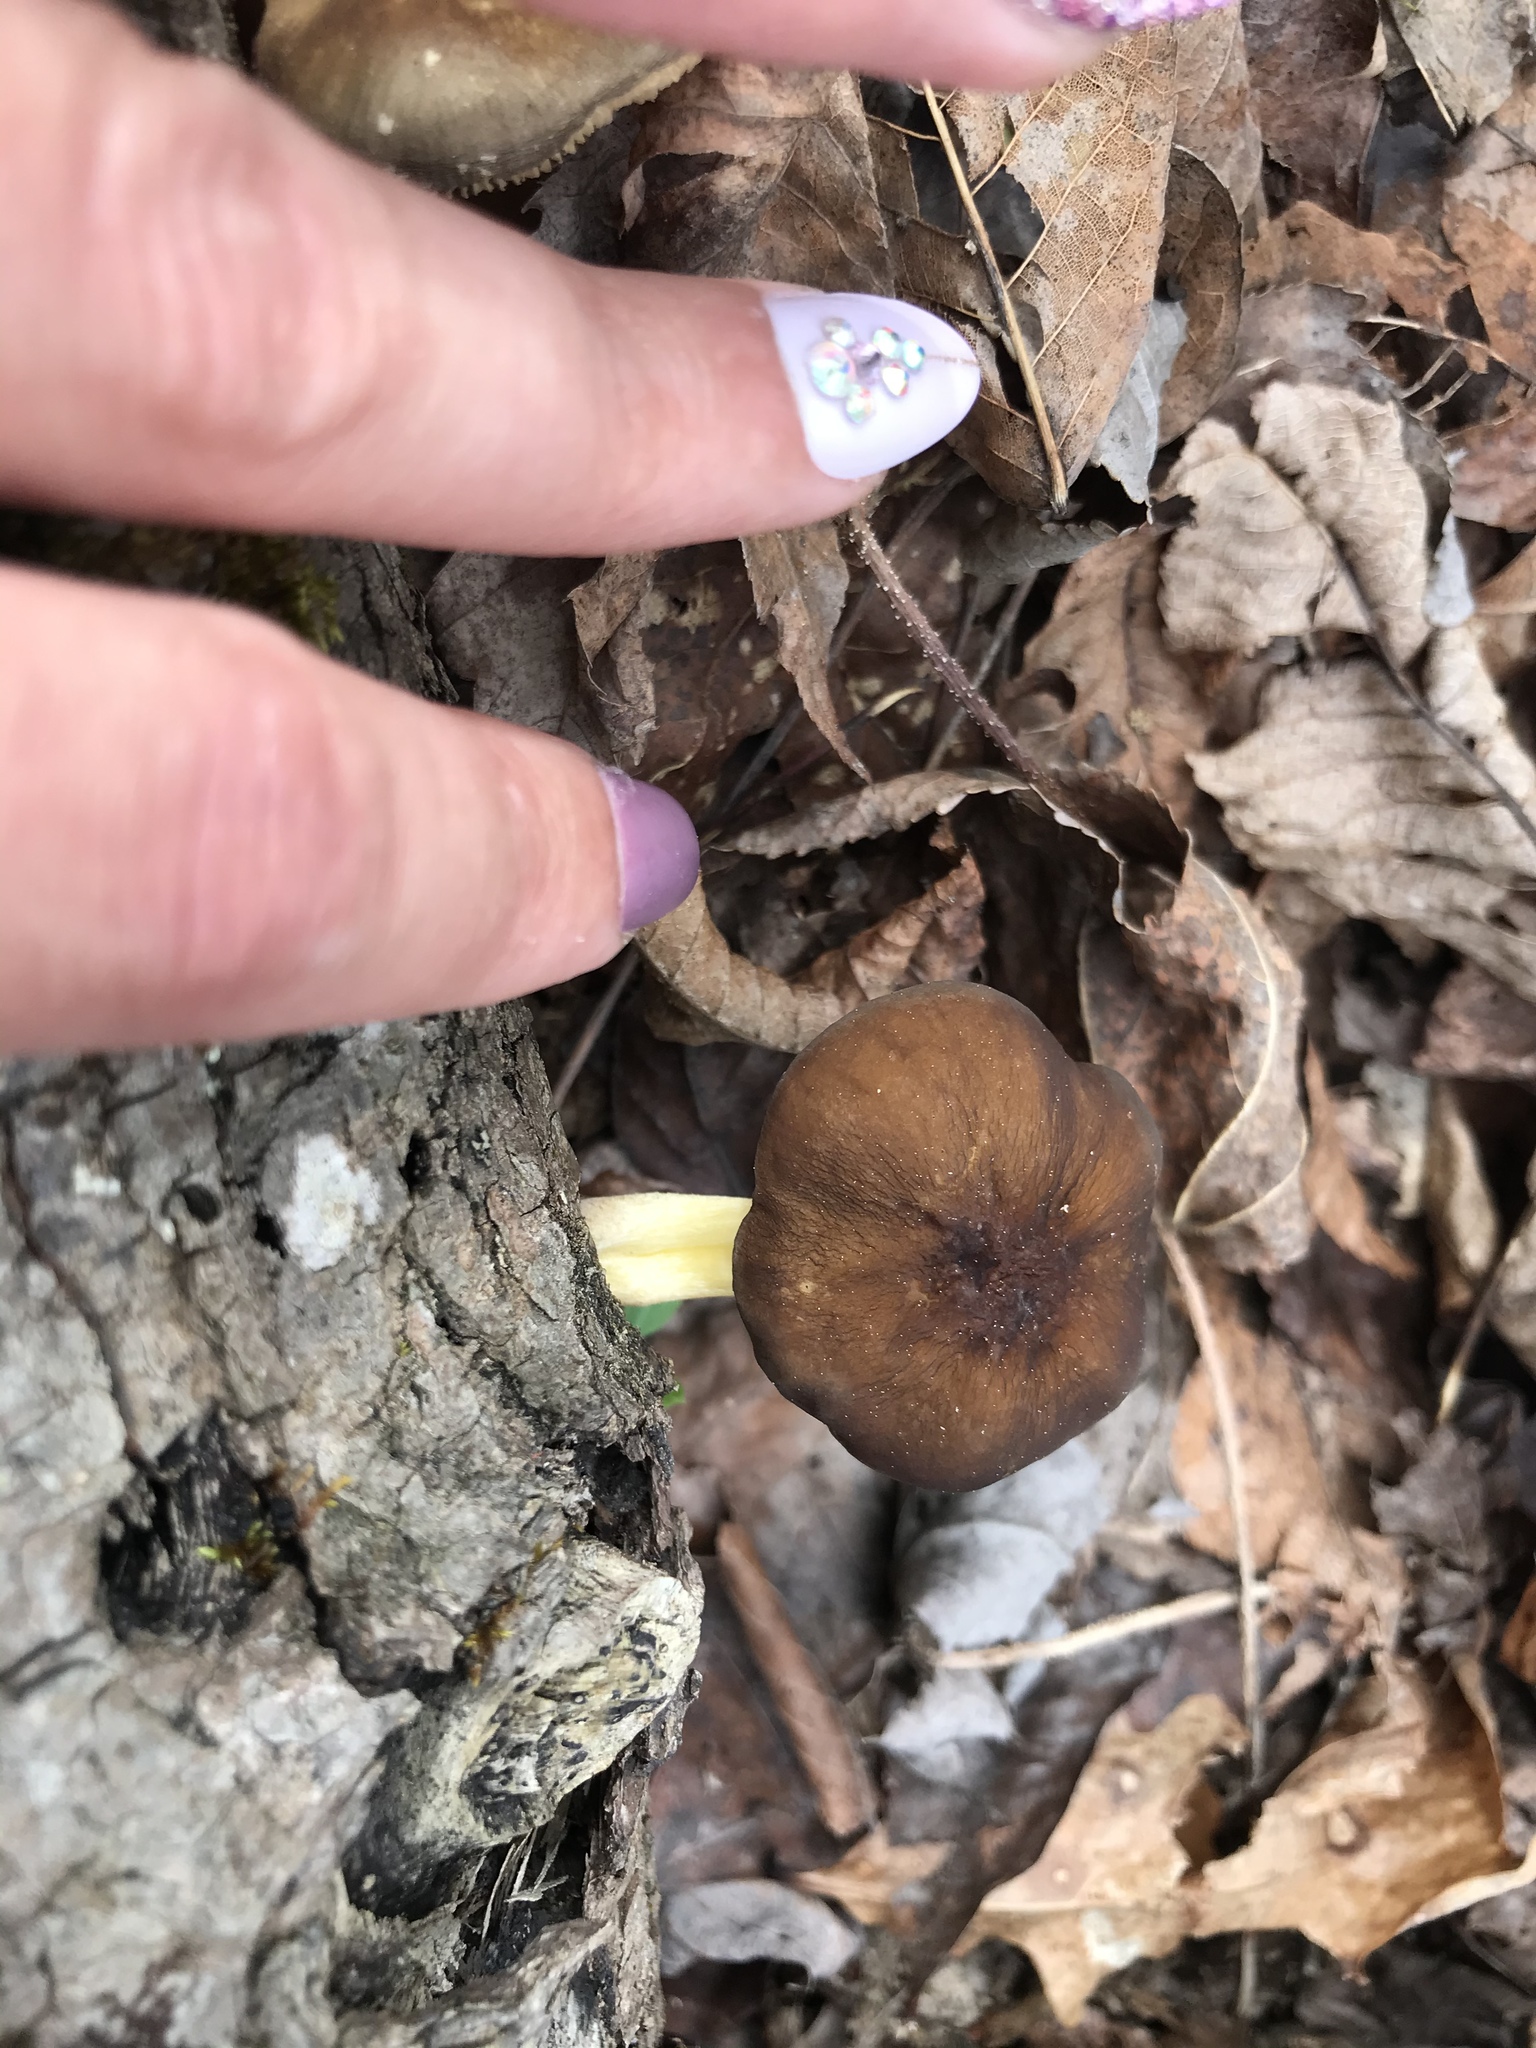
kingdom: Fungi
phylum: Basidiomycota
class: Agaricomycetes
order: Agaricales
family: Pluteaceae
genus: Pluteus
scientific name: Pluteus romellii
